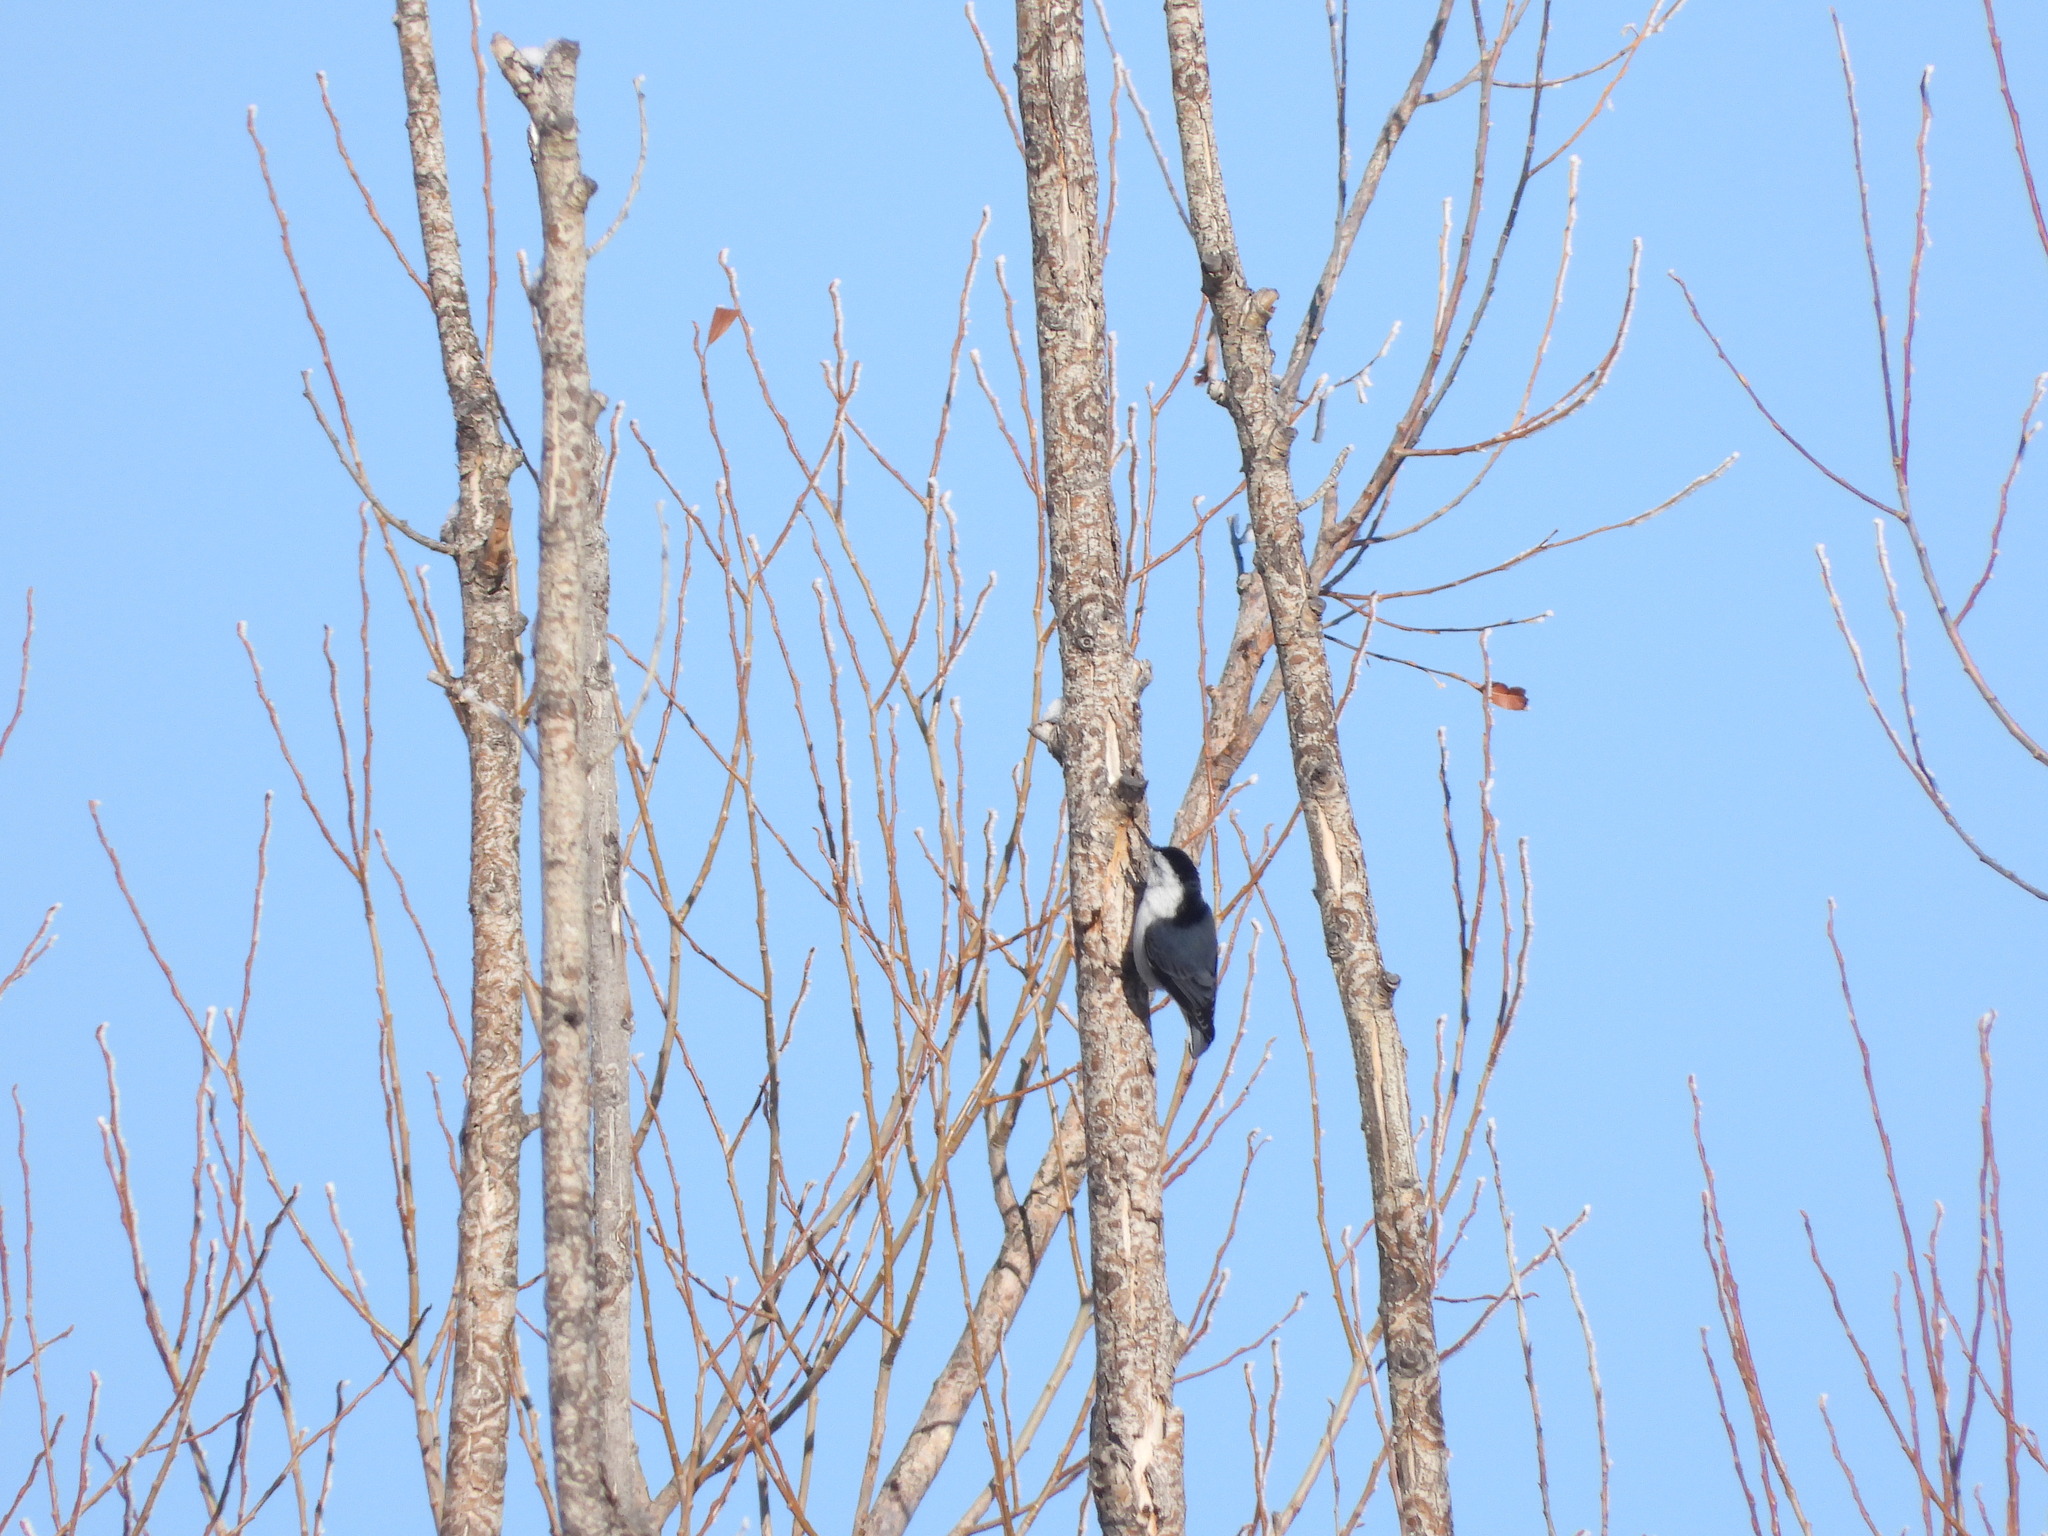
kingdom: Animalia
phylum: Chordata
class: Aves
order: Passeriformes
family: Sittidae
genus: Sitta
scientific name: Sitta carolinensis
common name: White-breasted nuthatch
